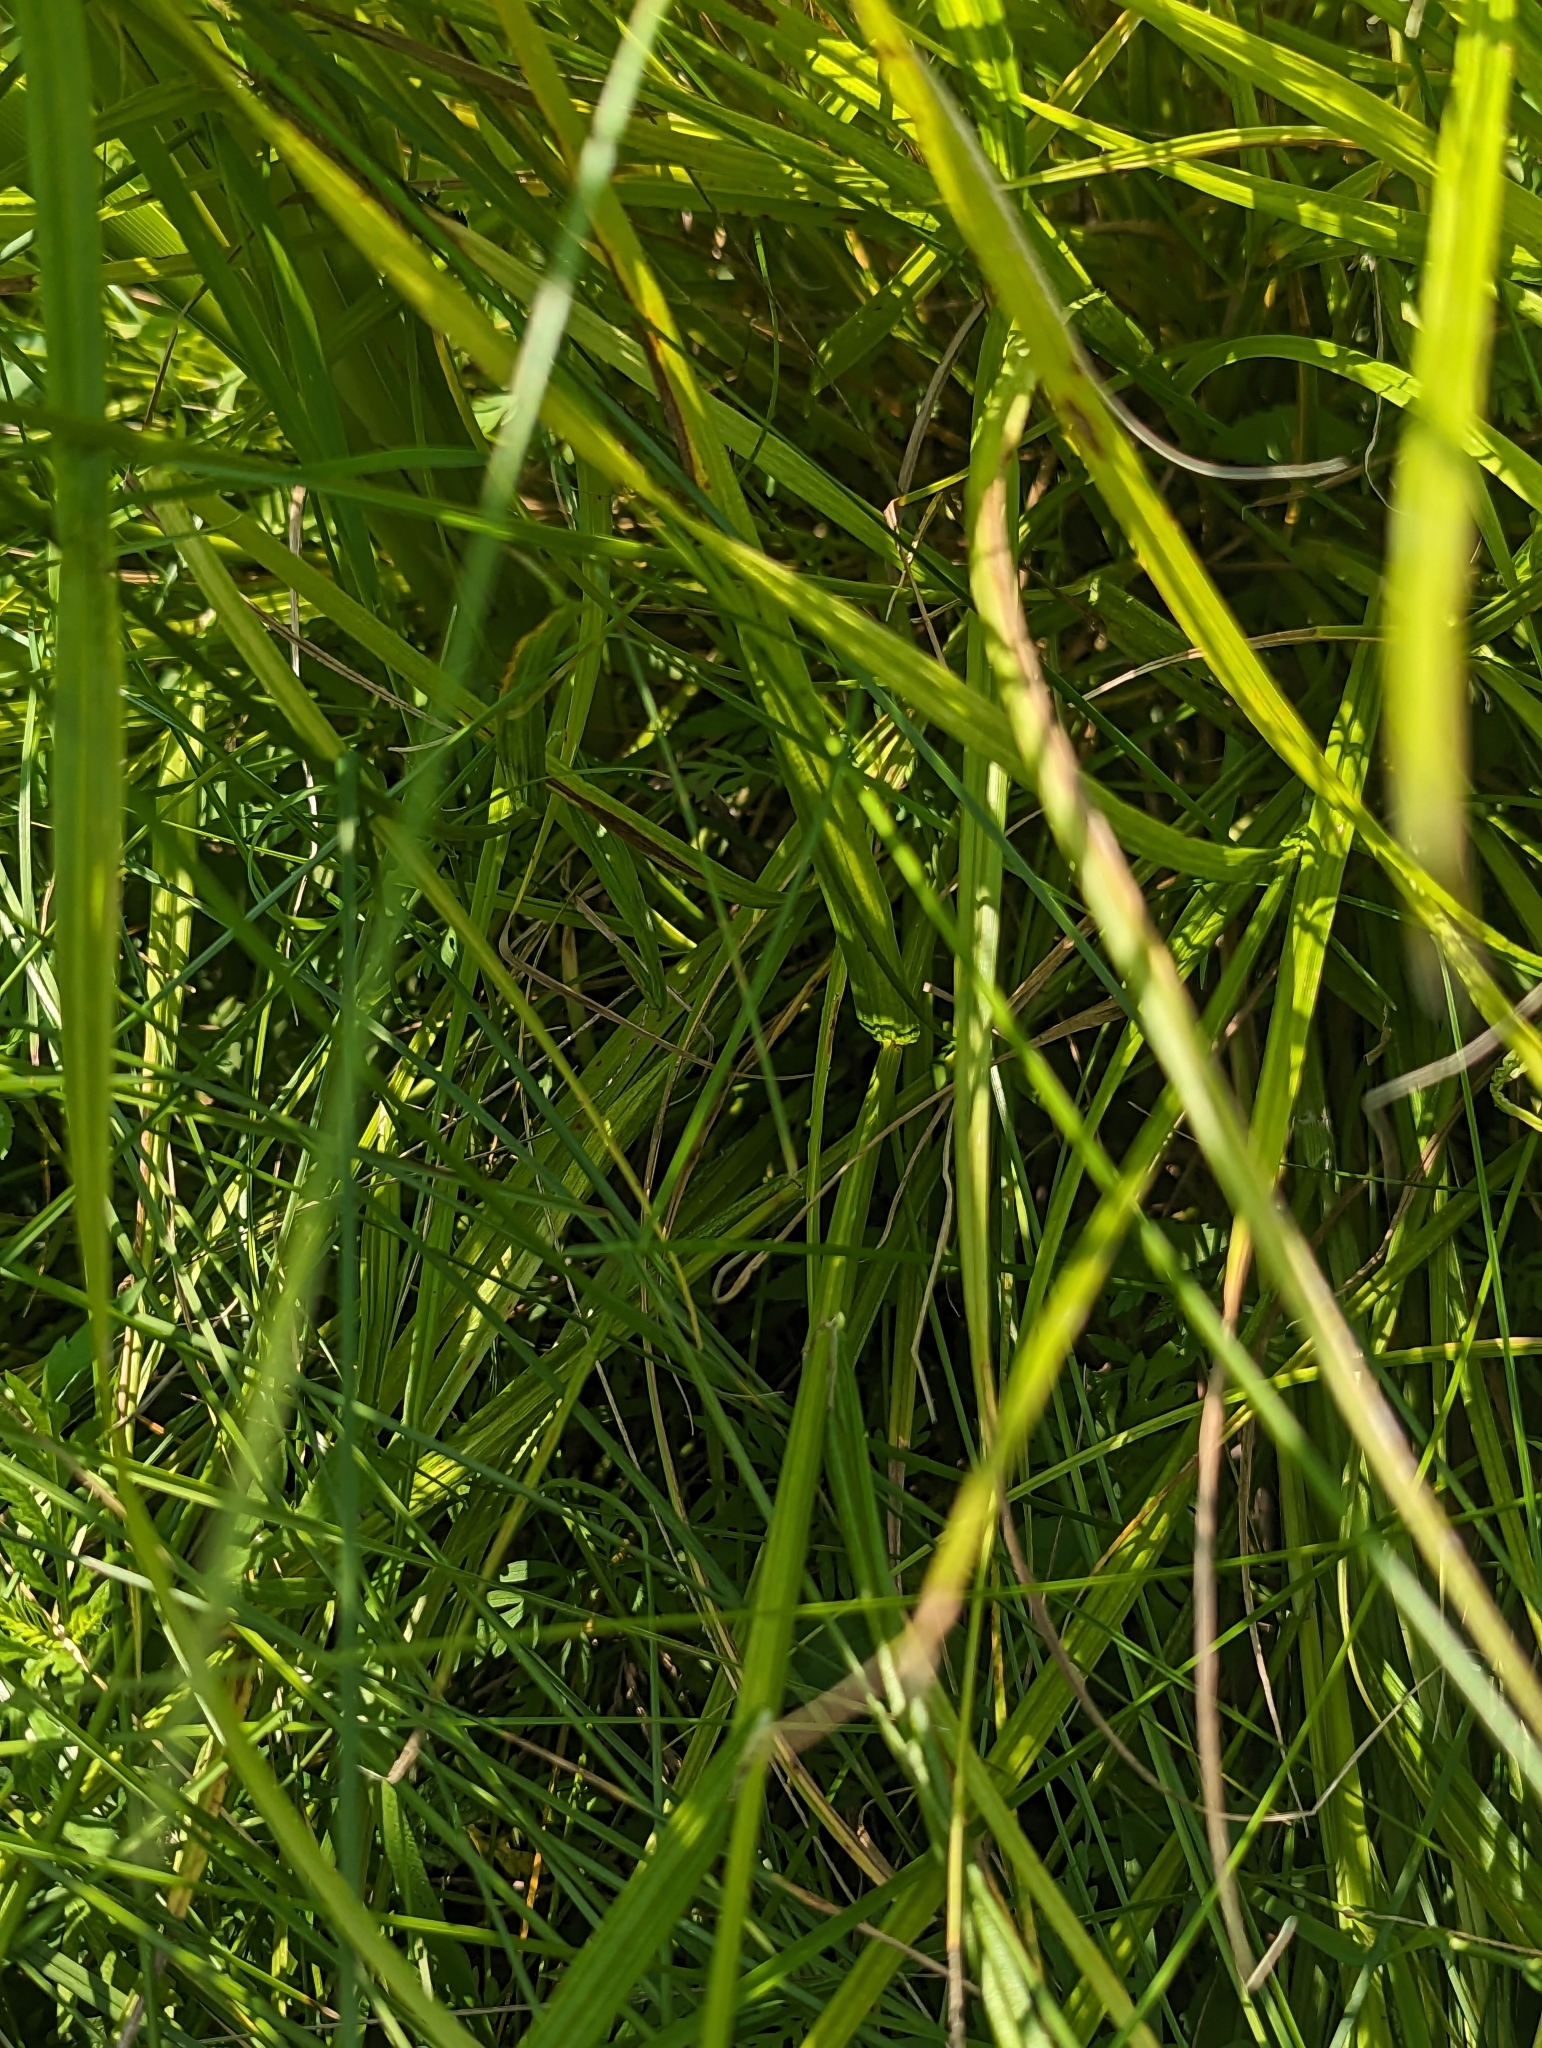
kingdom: Plantae
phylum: Tracheophyta
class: Liliopsida
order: Poales
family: Cyperaceae
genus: Carex
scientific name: Carex cristatella
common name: Crested oval sedge
